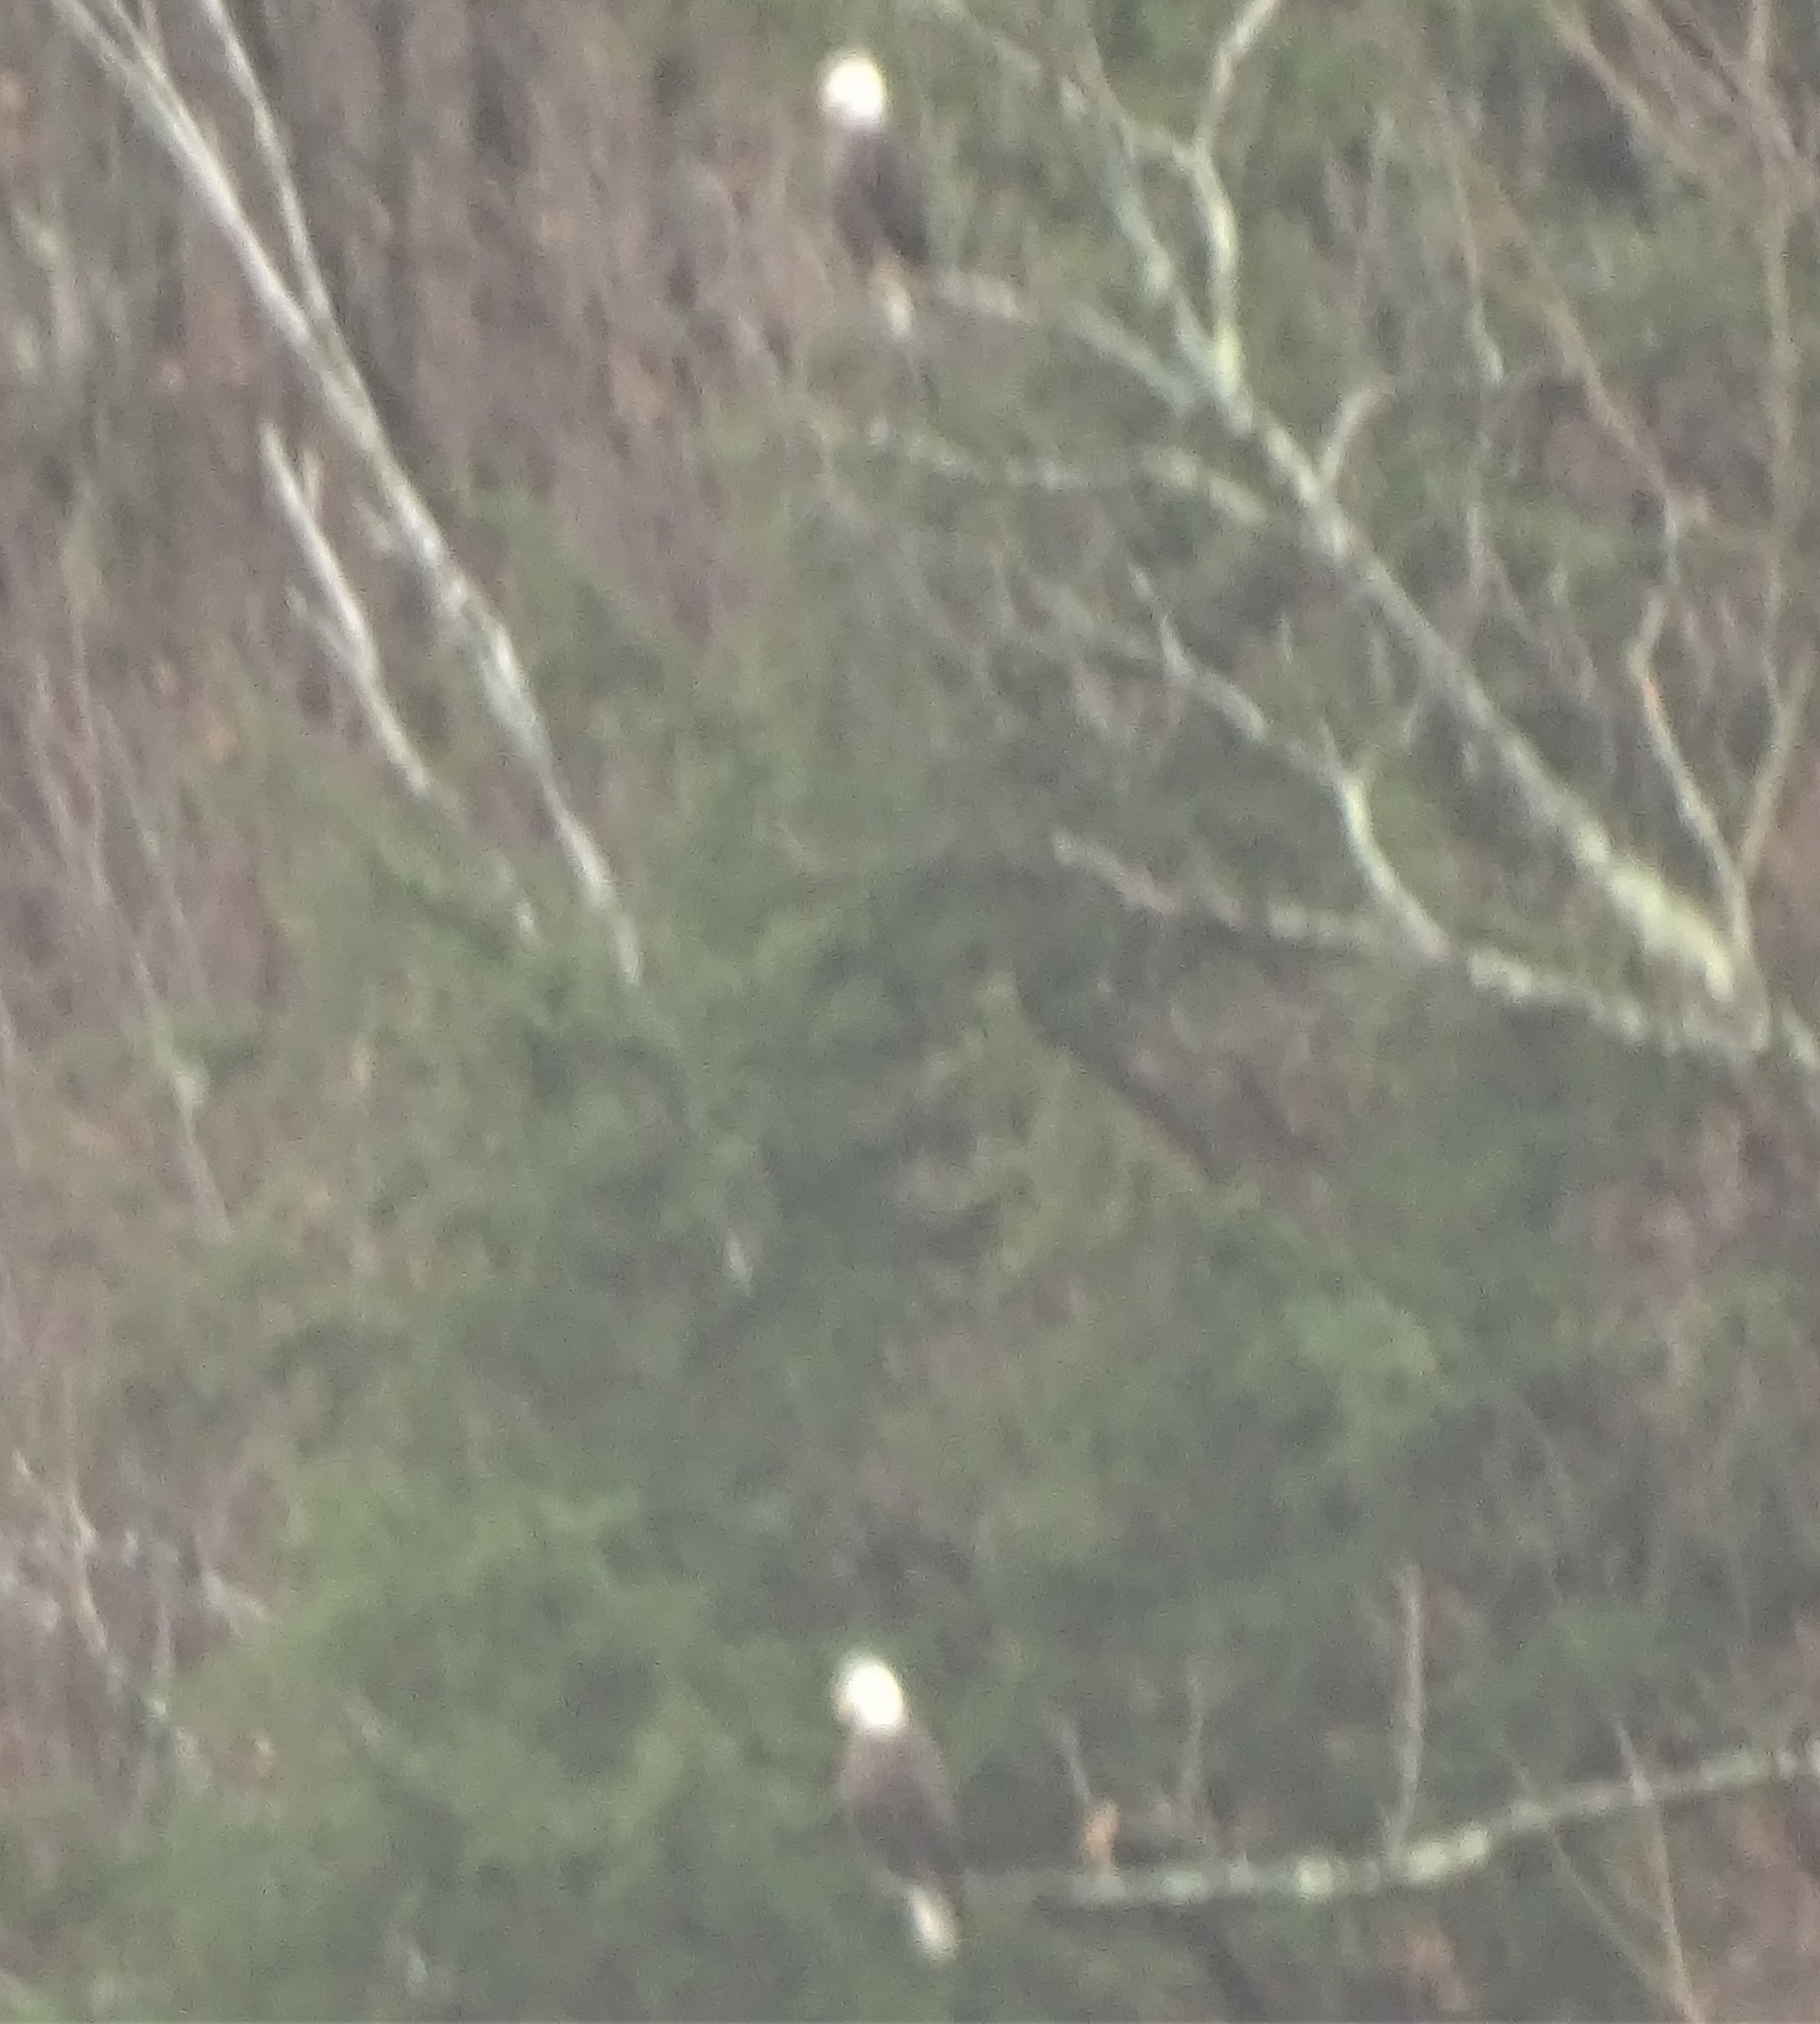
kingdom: Animalia
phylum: Chordata
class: Aves
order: Accipitriformes
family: Accipitridae
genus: Haliaeetus
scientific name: Haliaeetus leucocephalus
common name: Bald eagle
